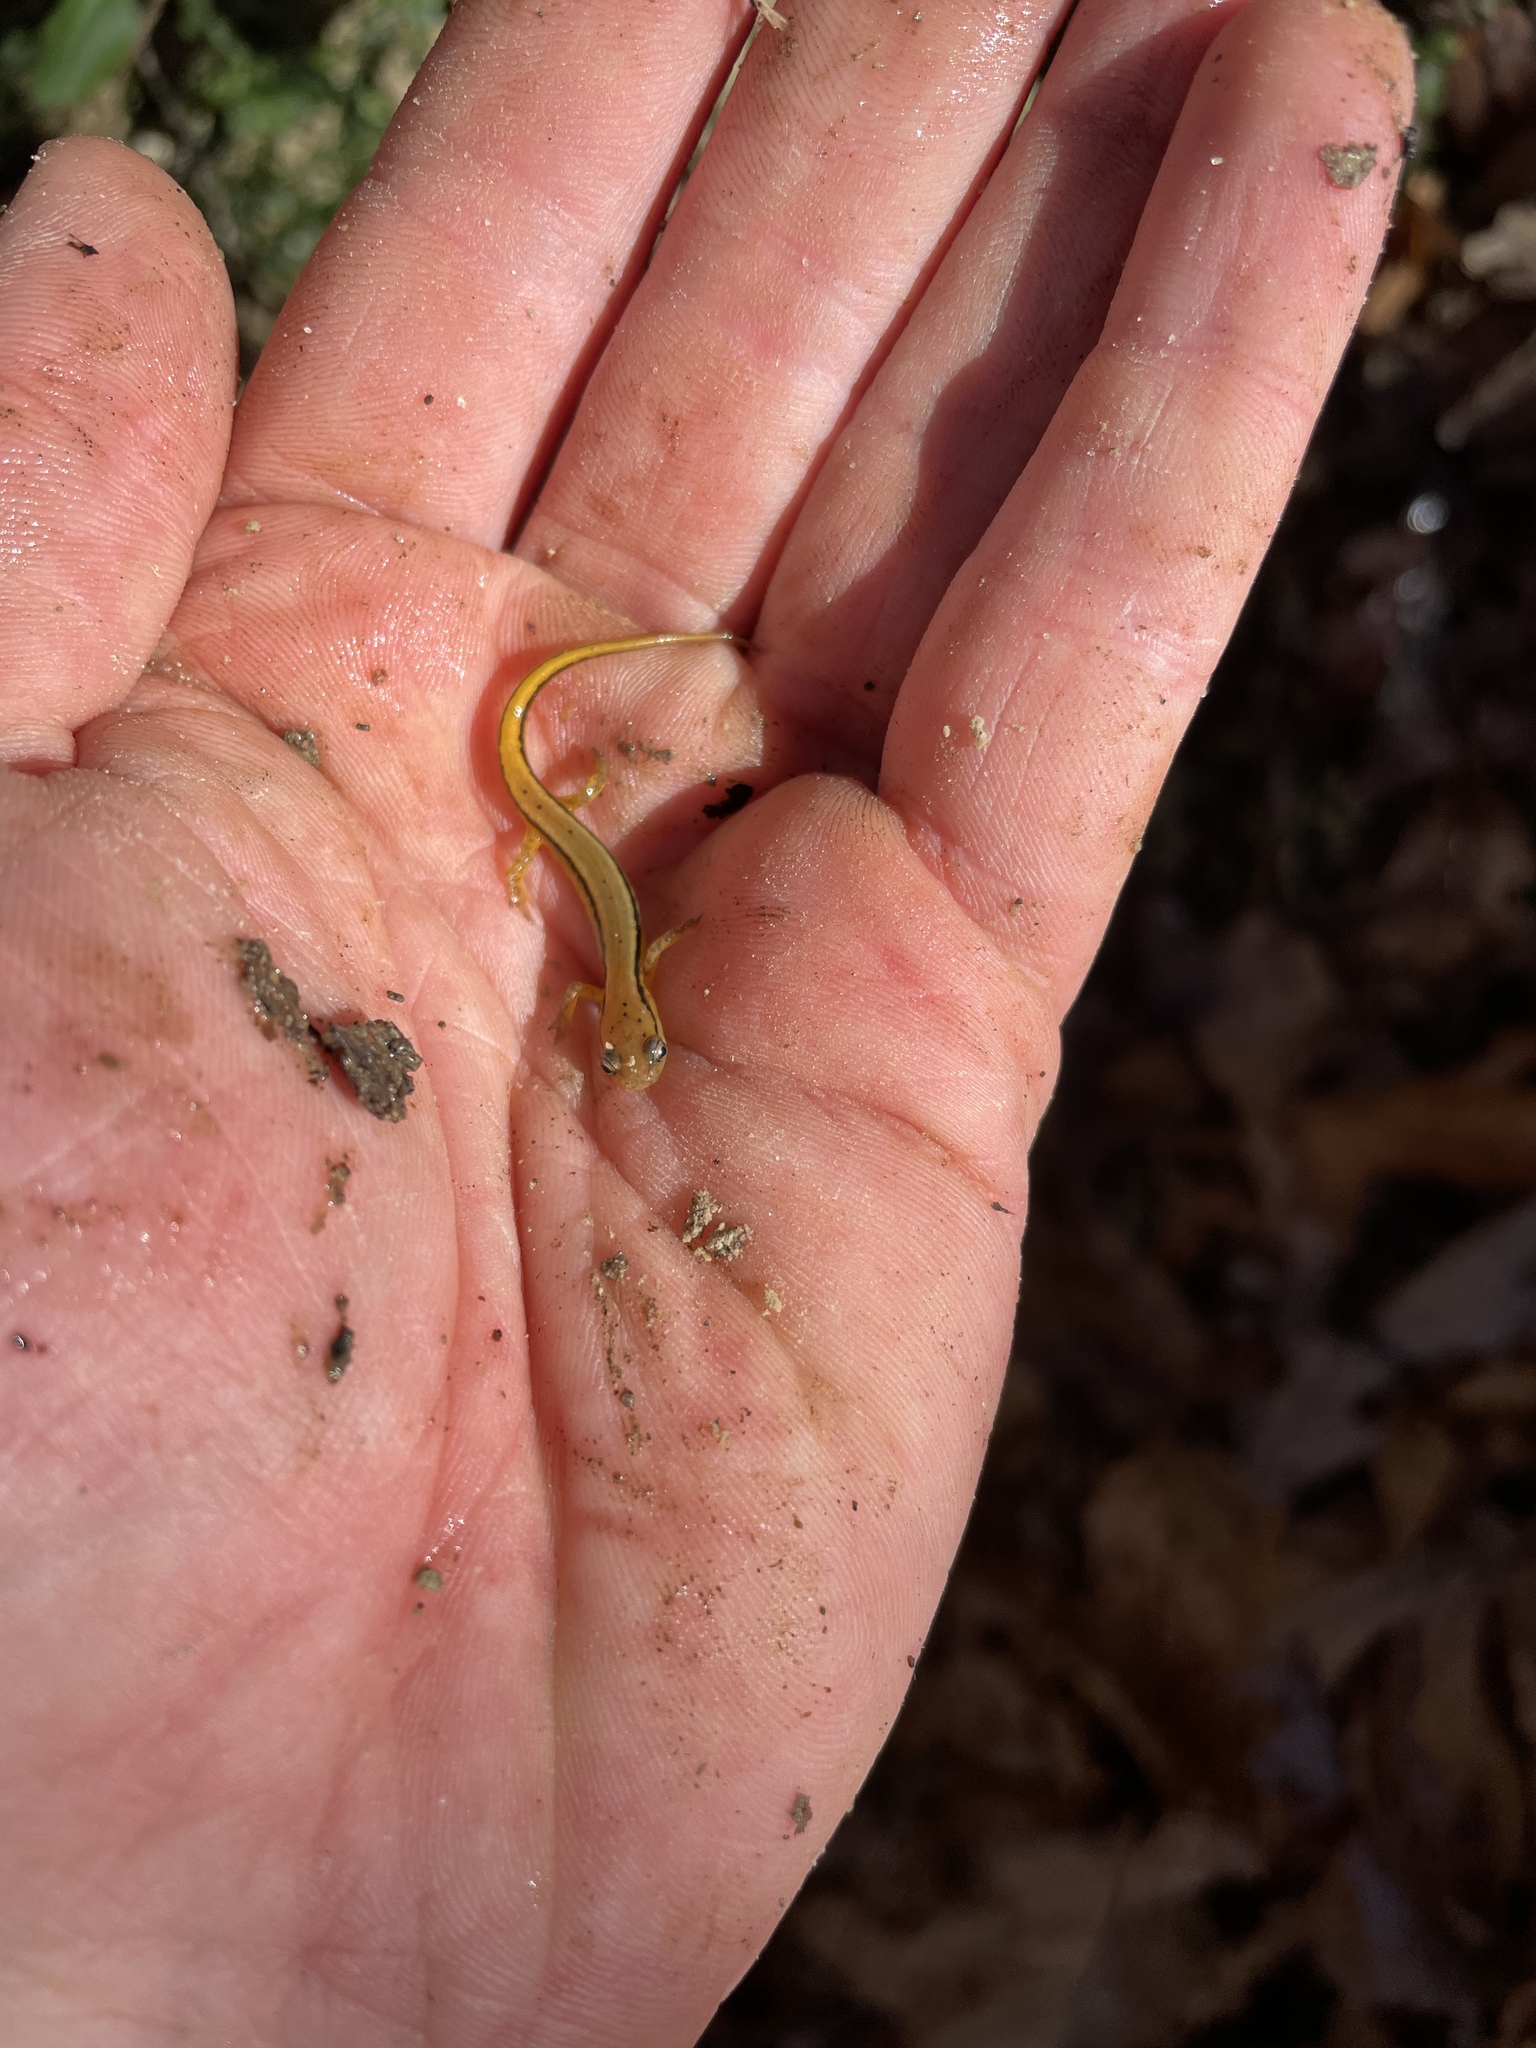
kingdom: Animalia
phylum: Chordata
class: Amphibia
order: Caudata
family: Plethodontidae
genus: Eurycea
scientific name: Eurycea cirrigera
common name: Southern two-lined salamander
